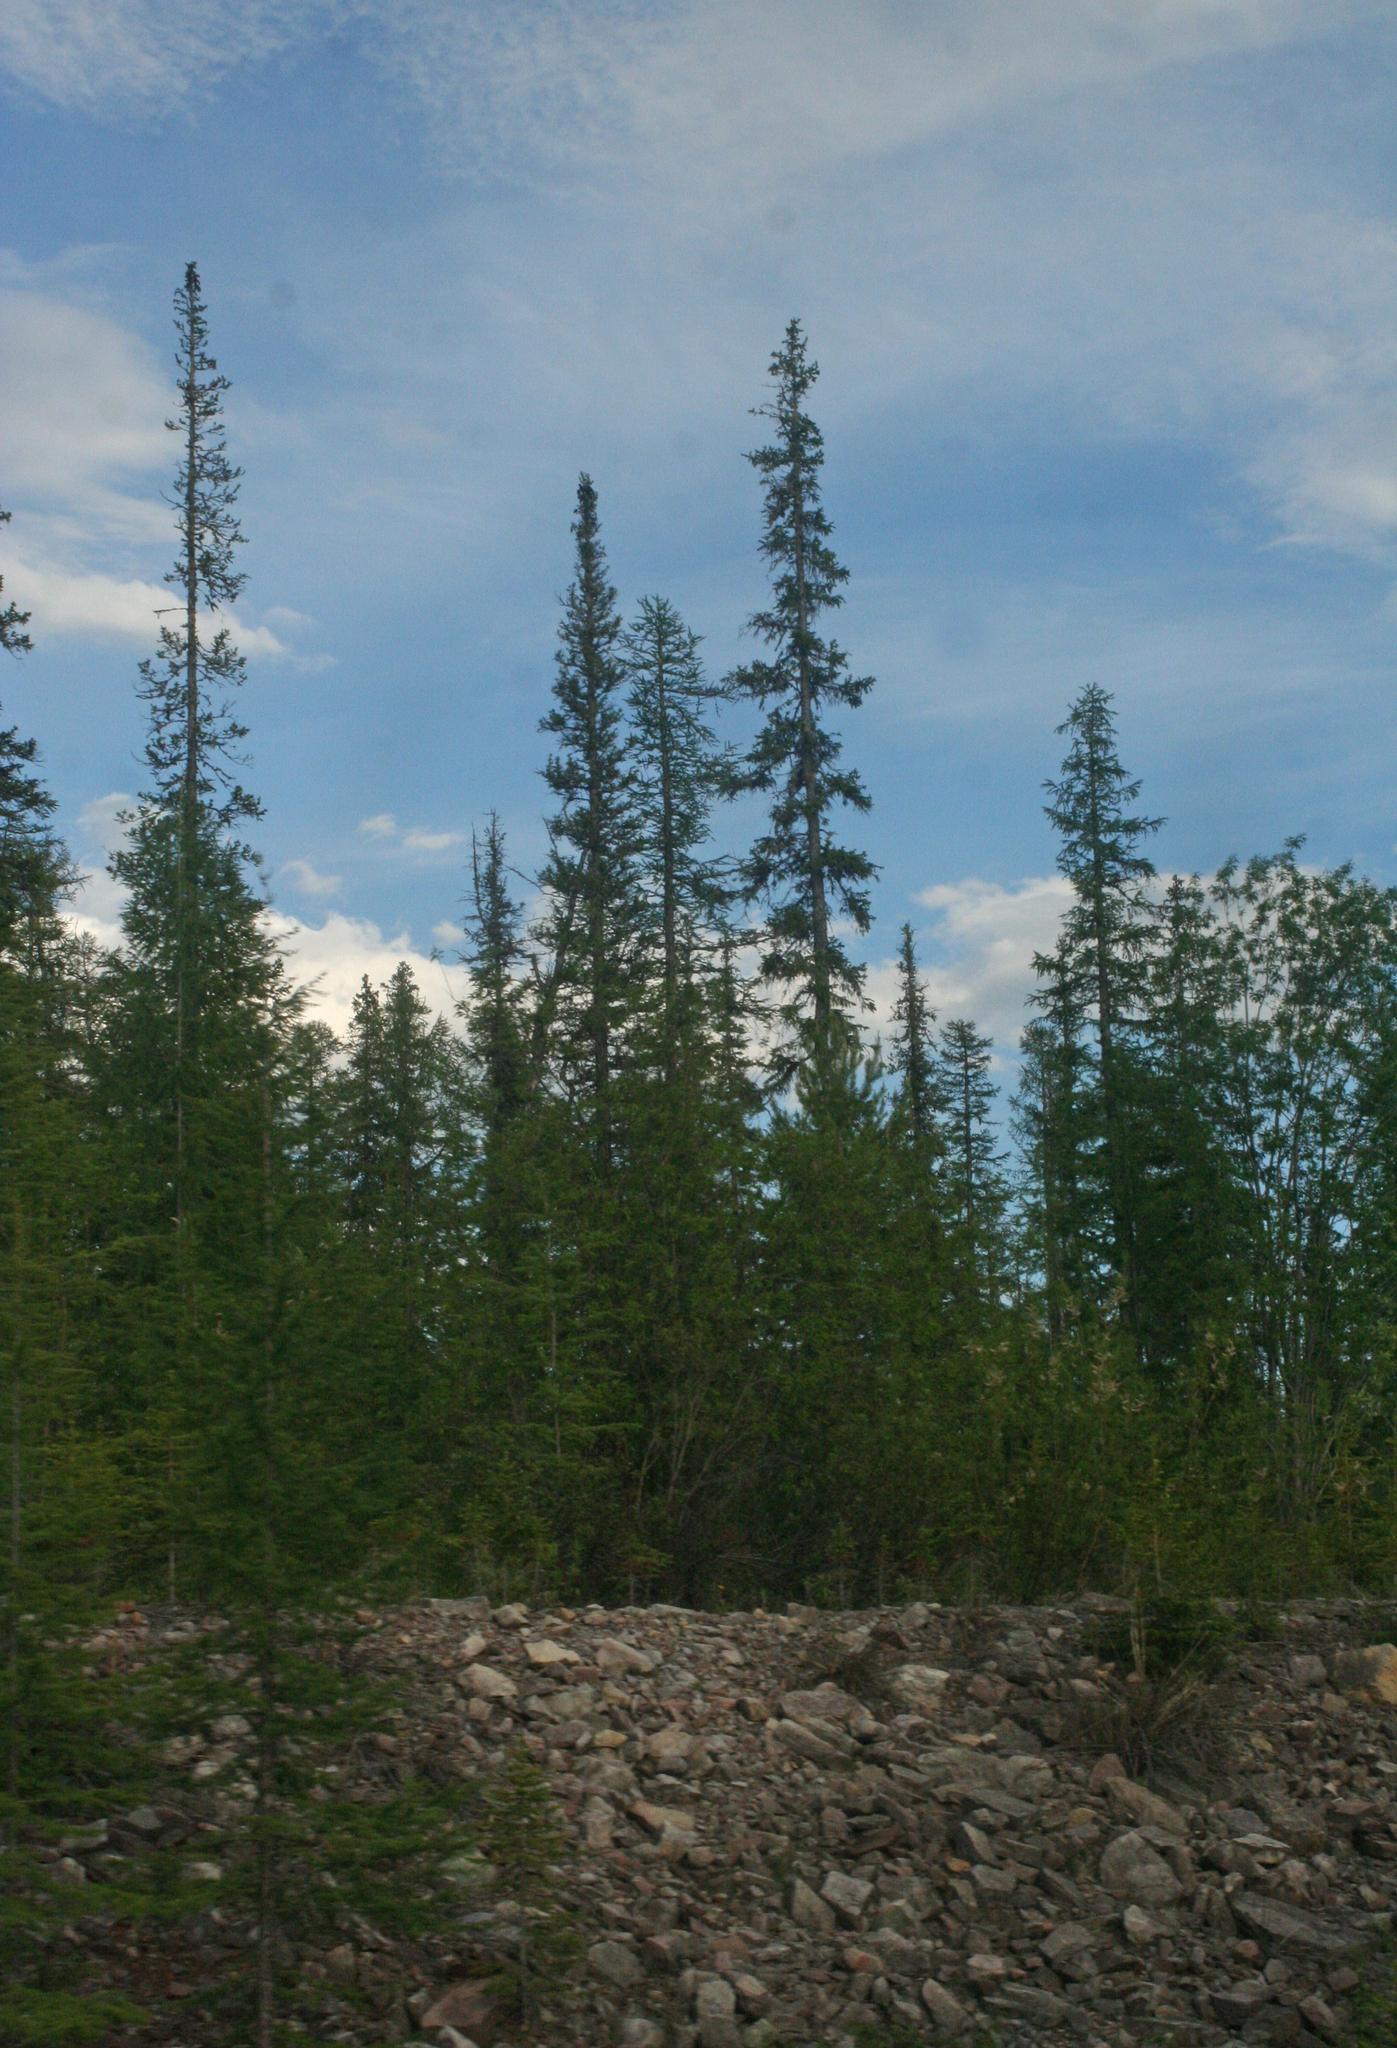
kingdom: Plantae
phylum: Tracheophyta
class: Pinopsida
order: Pinales
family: Pinaceae
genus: Picea
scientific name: Picea obovata
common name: Siberian spruce
